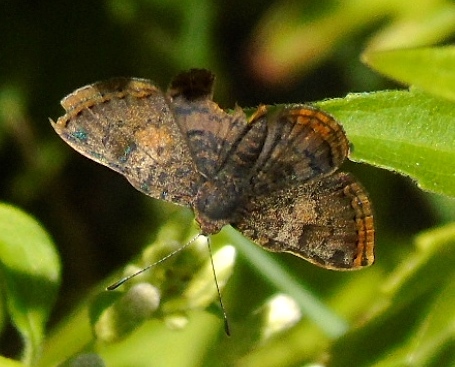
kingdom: Animalia
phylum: Arthropoda
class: Insecta
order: Lepidoptera
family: Geometridae
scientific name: Geometridae
